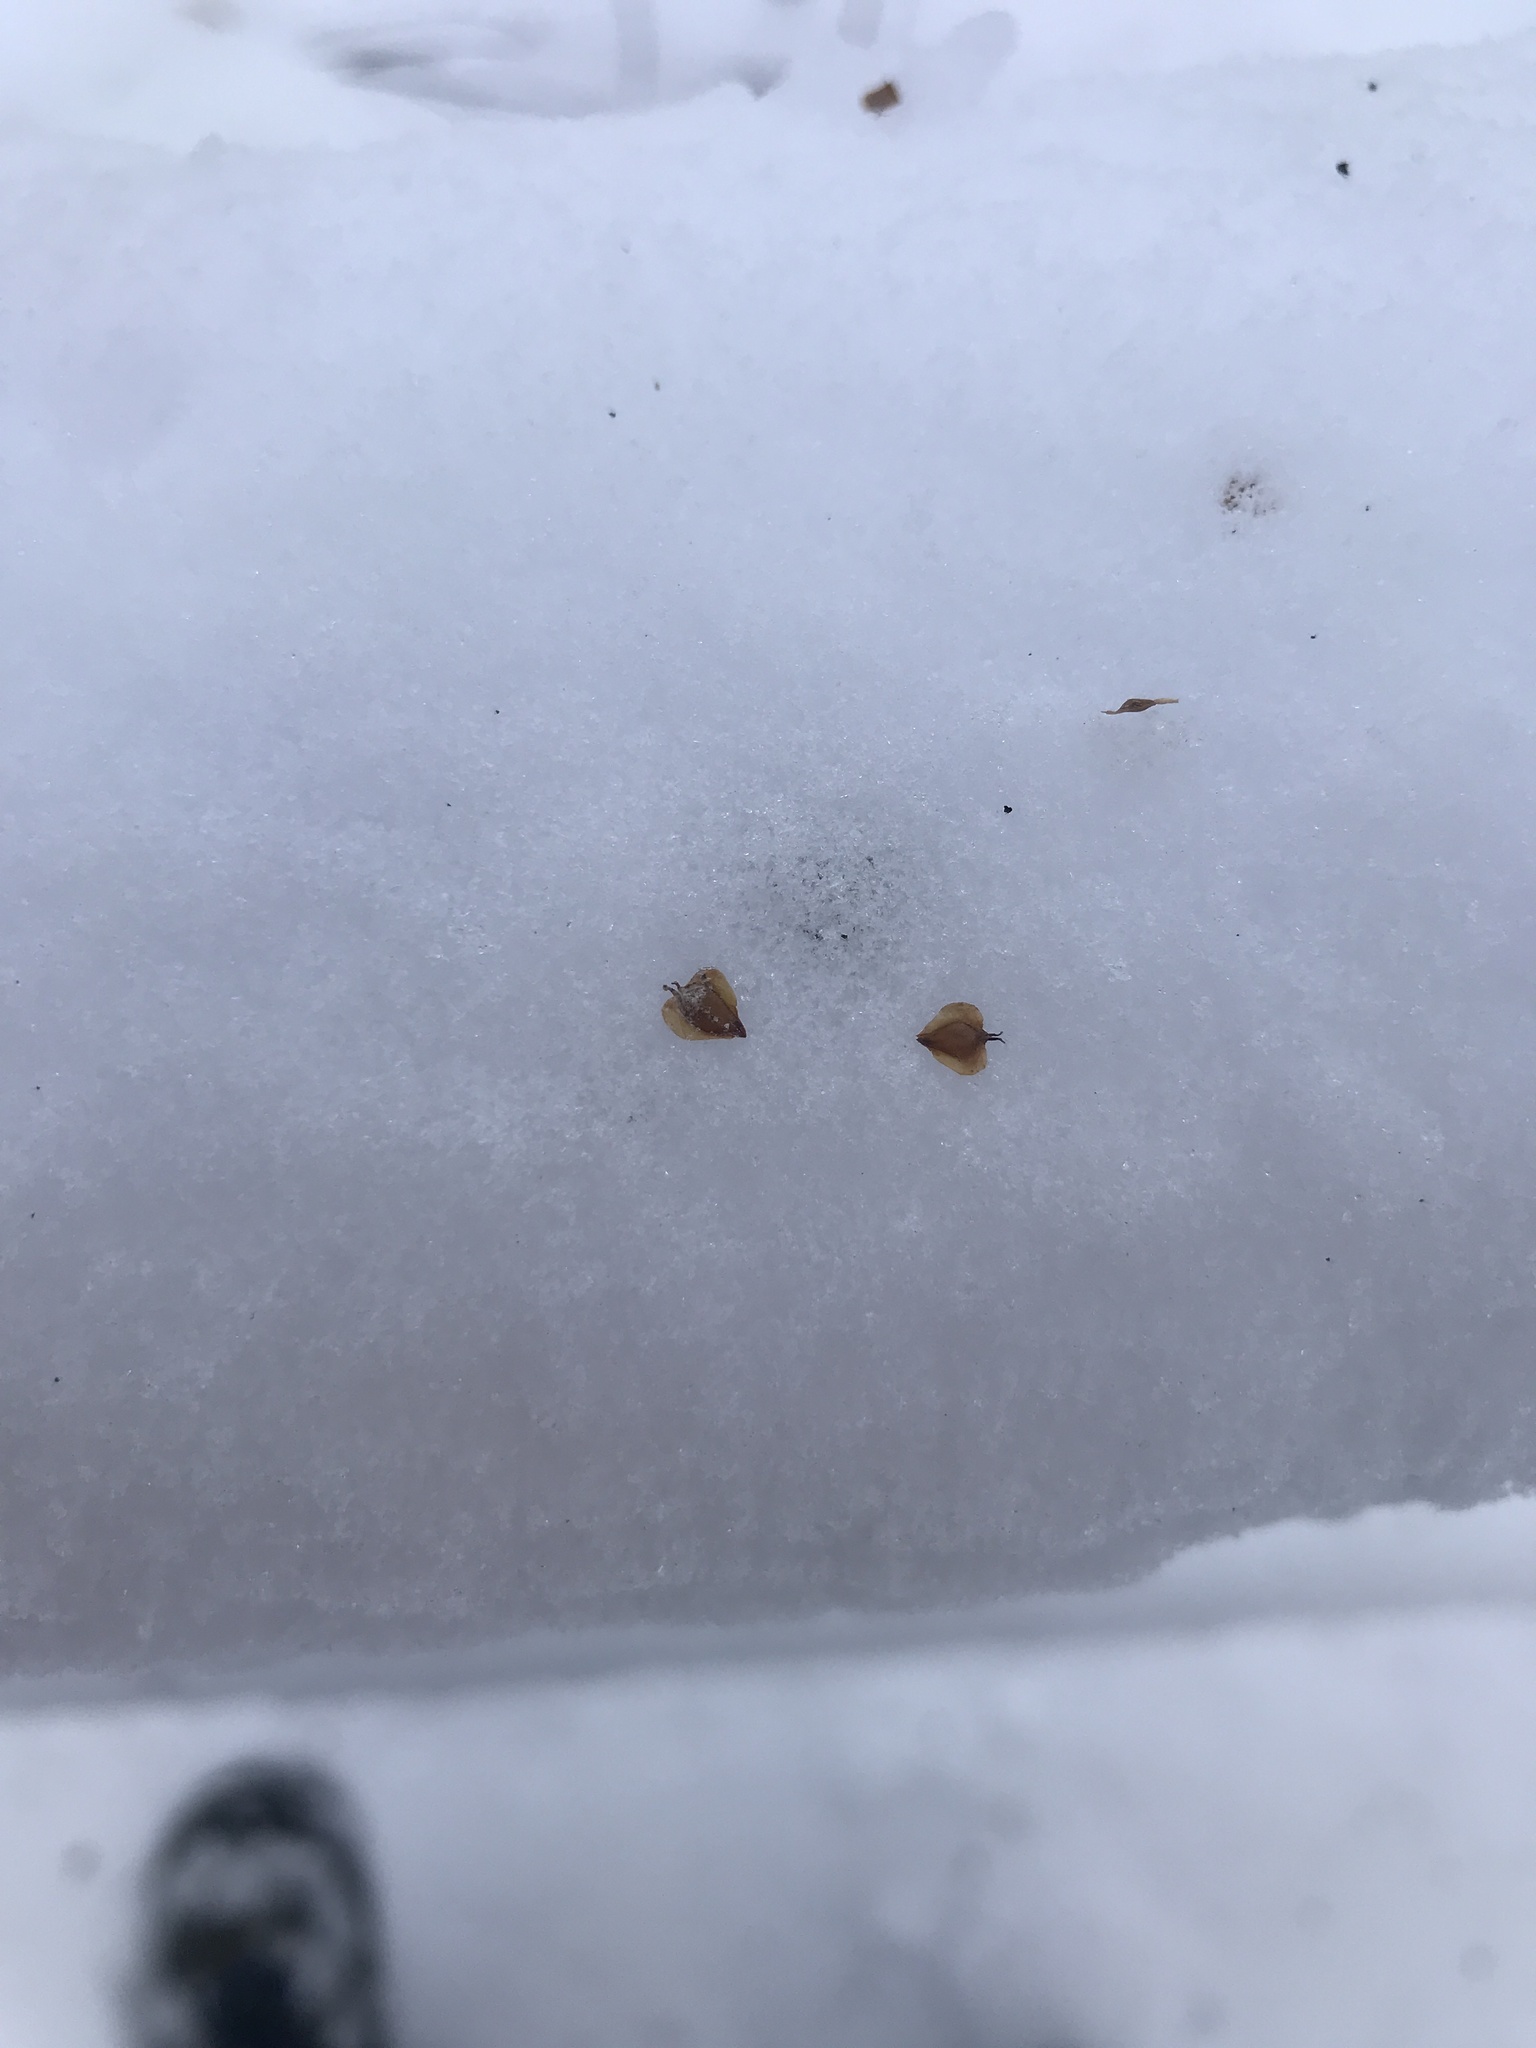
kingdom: Plantae
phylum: Tracheophyta
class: Magnoliopsida
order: Fagales
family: Betulaceae
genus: Betula
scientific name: Betula lenta
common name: Black birch
